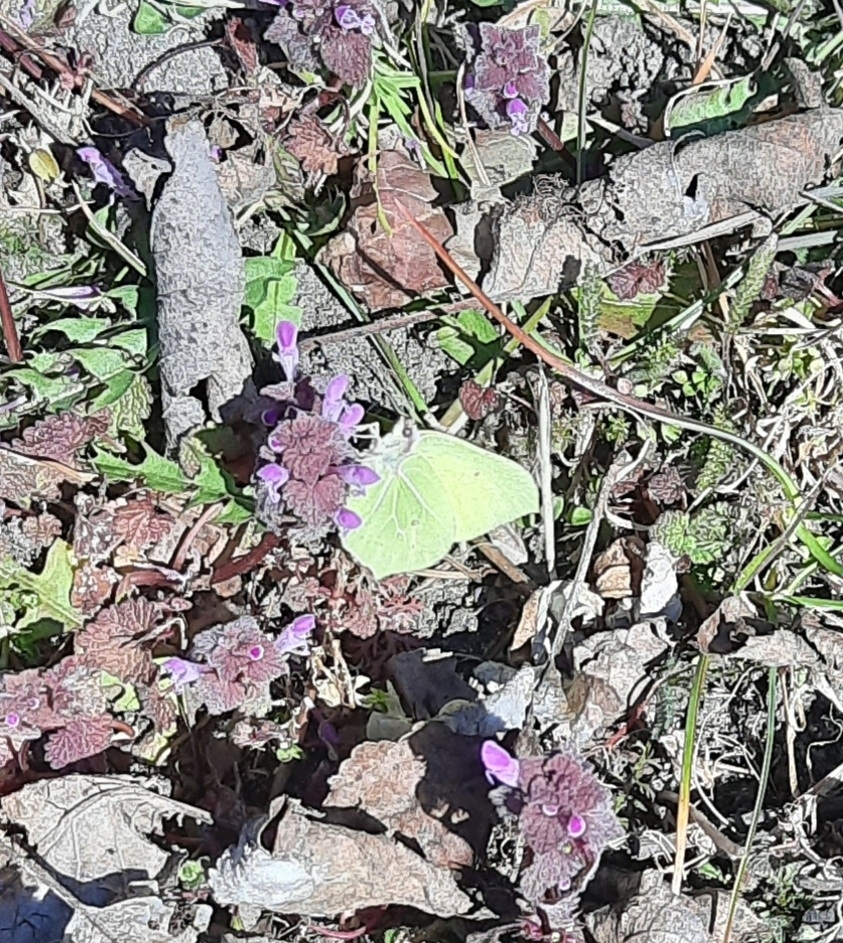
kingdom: Animalia
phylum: Arthropoda
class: Insecta
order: Lepidoptera
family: Pieridae
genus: Gonepteryx
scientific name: Gonepteryx rhamni
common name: Brimstone
